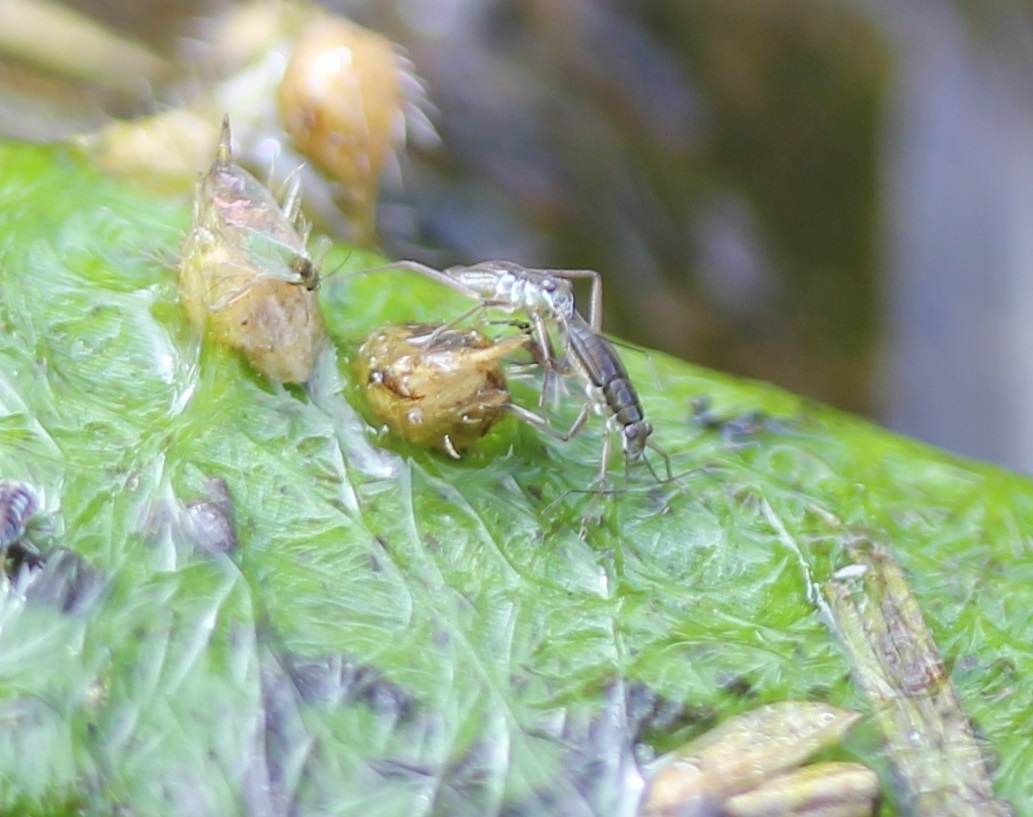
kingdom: Animalia
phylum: Arthropoda
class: Insecta
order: Hemiptera
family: Mesoveliidae
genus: Mesovelia
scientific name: Mesovelia
